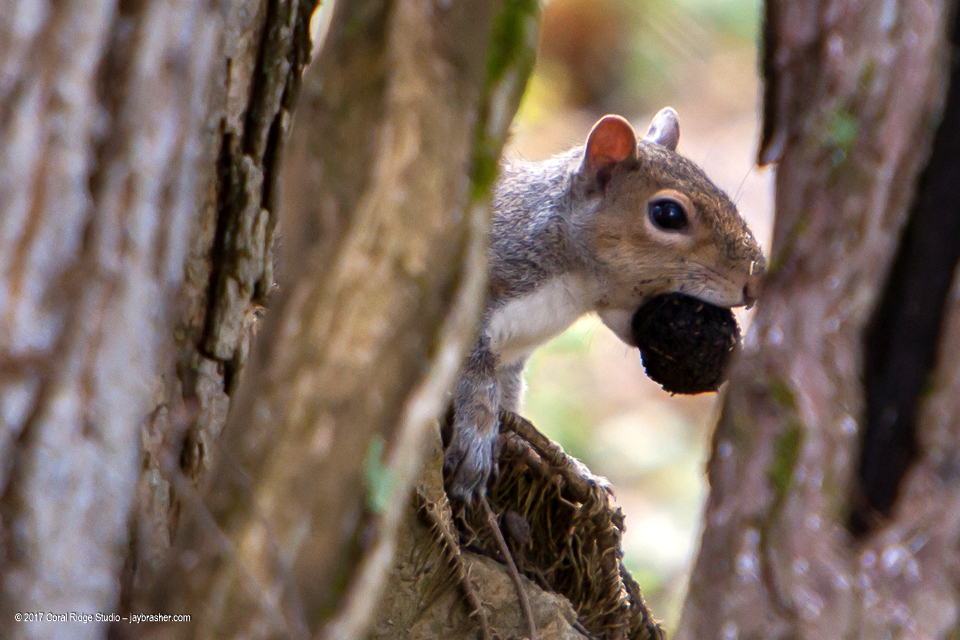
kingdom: Animalia
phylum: Chordata
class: Mammalia
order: Rodentia
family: Sciuridae
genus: Sciurus
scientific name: Sciurus carolinensis
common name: Eastern gray squirrel
